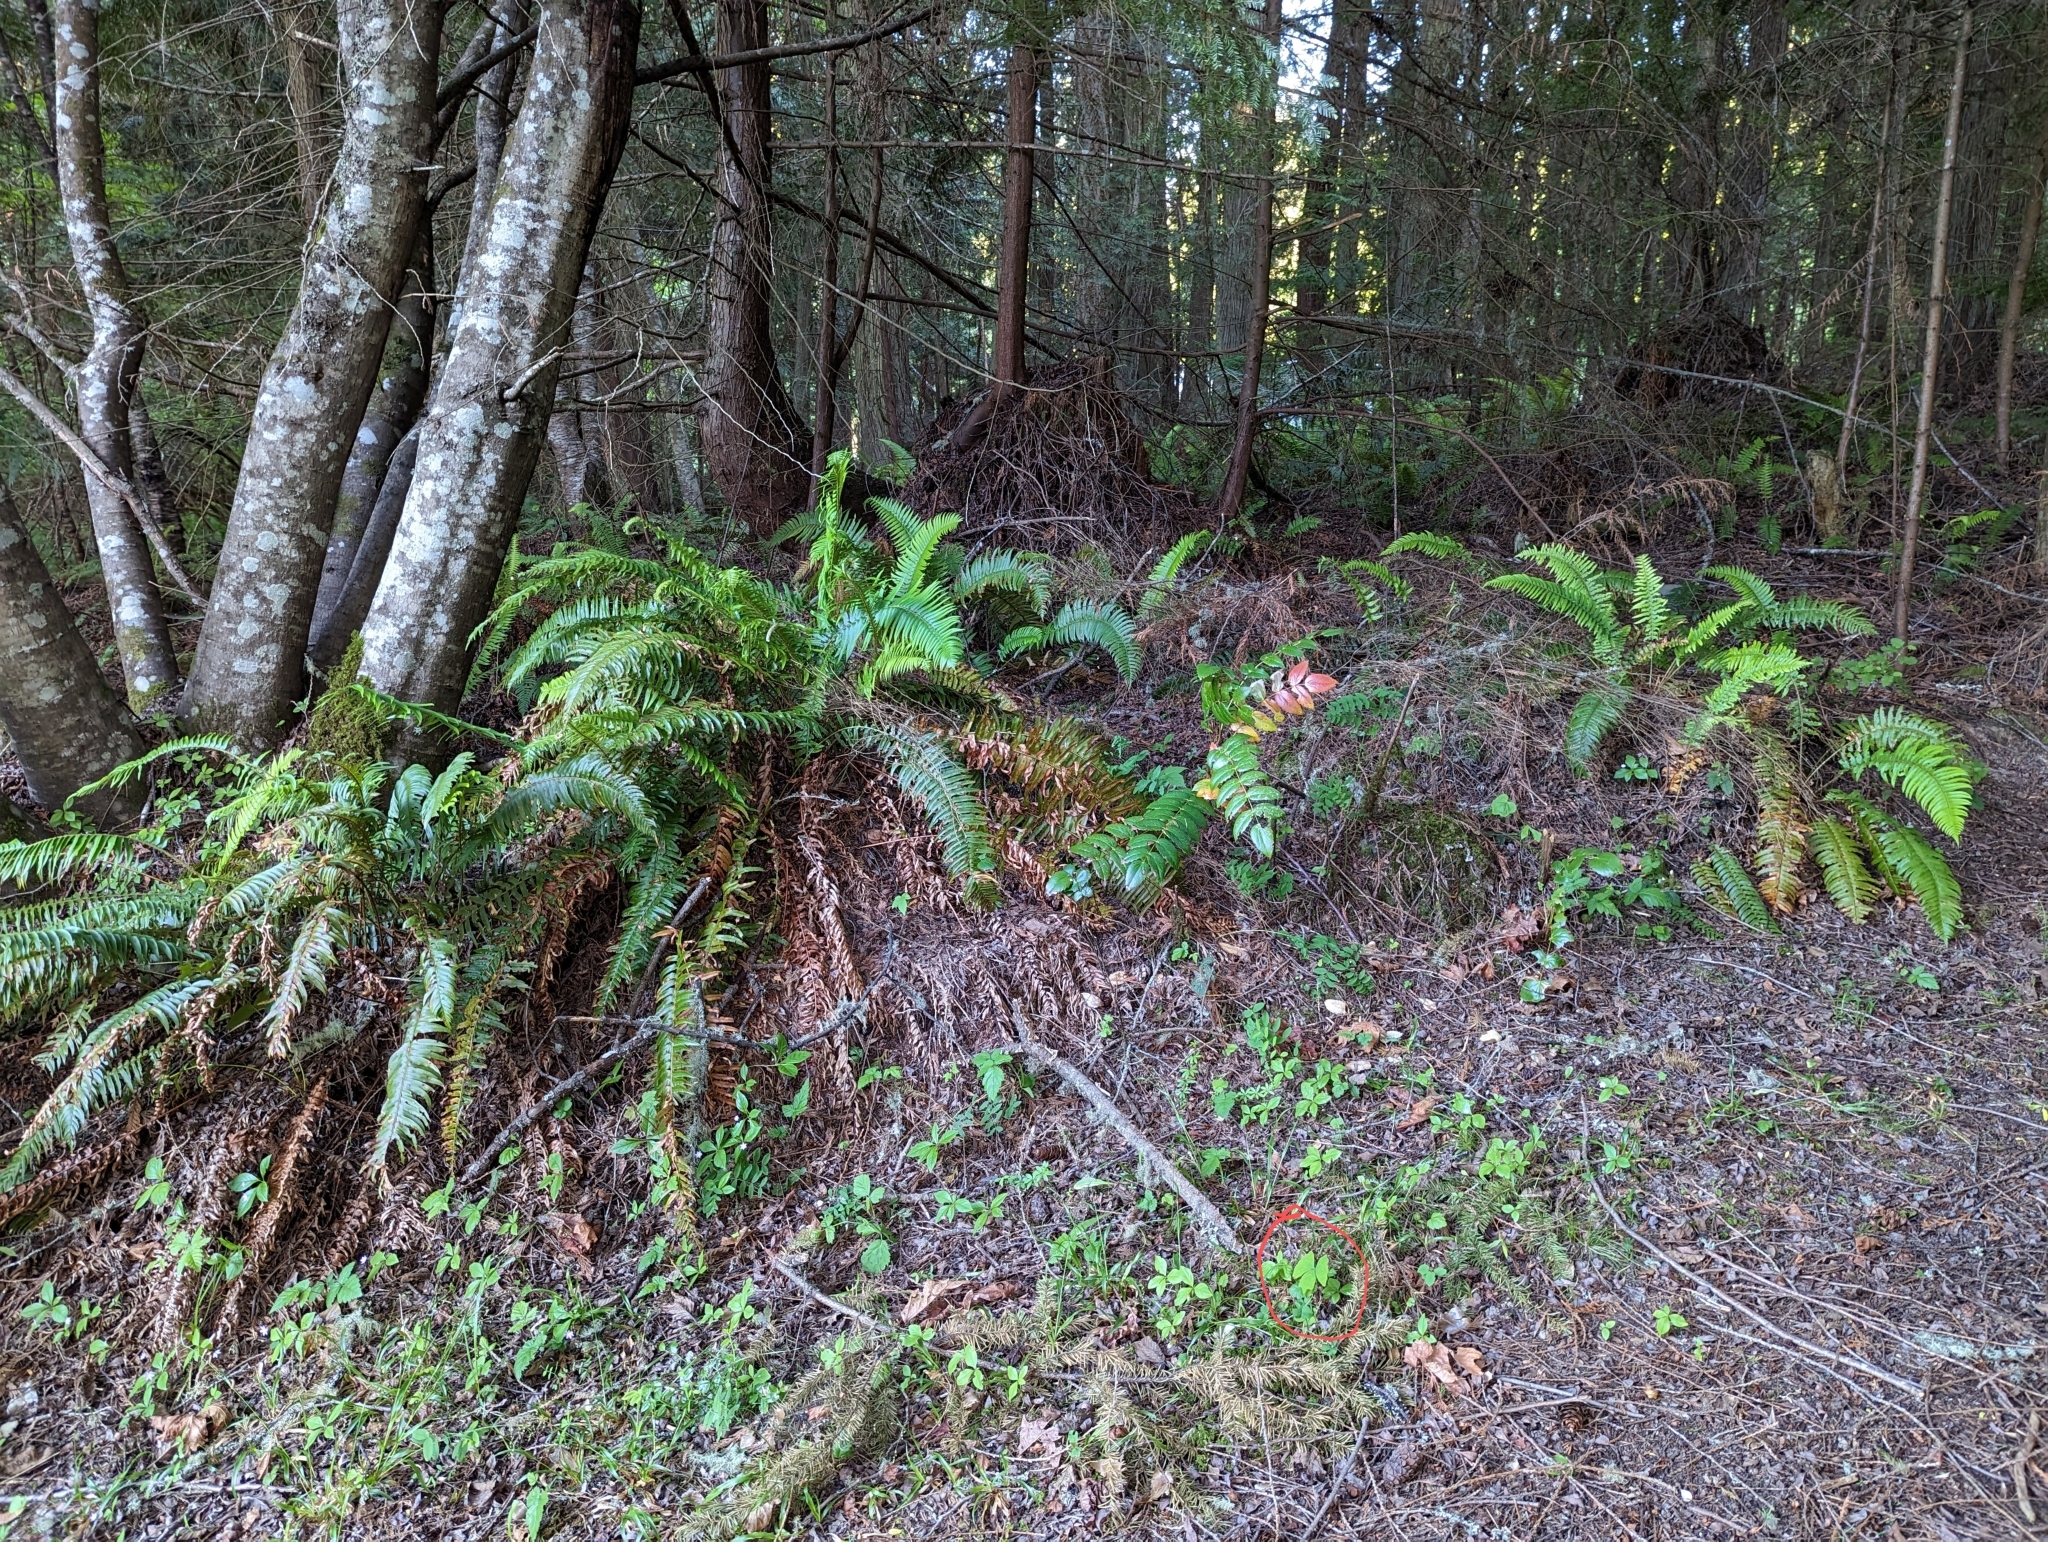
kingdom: Plantae
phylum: Tracheophyta
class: Magnoliopsida
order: Ranunculales
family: Berberidaceae
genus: Achlys
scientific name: Achlys triphylla
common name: Vanilla-leaf
